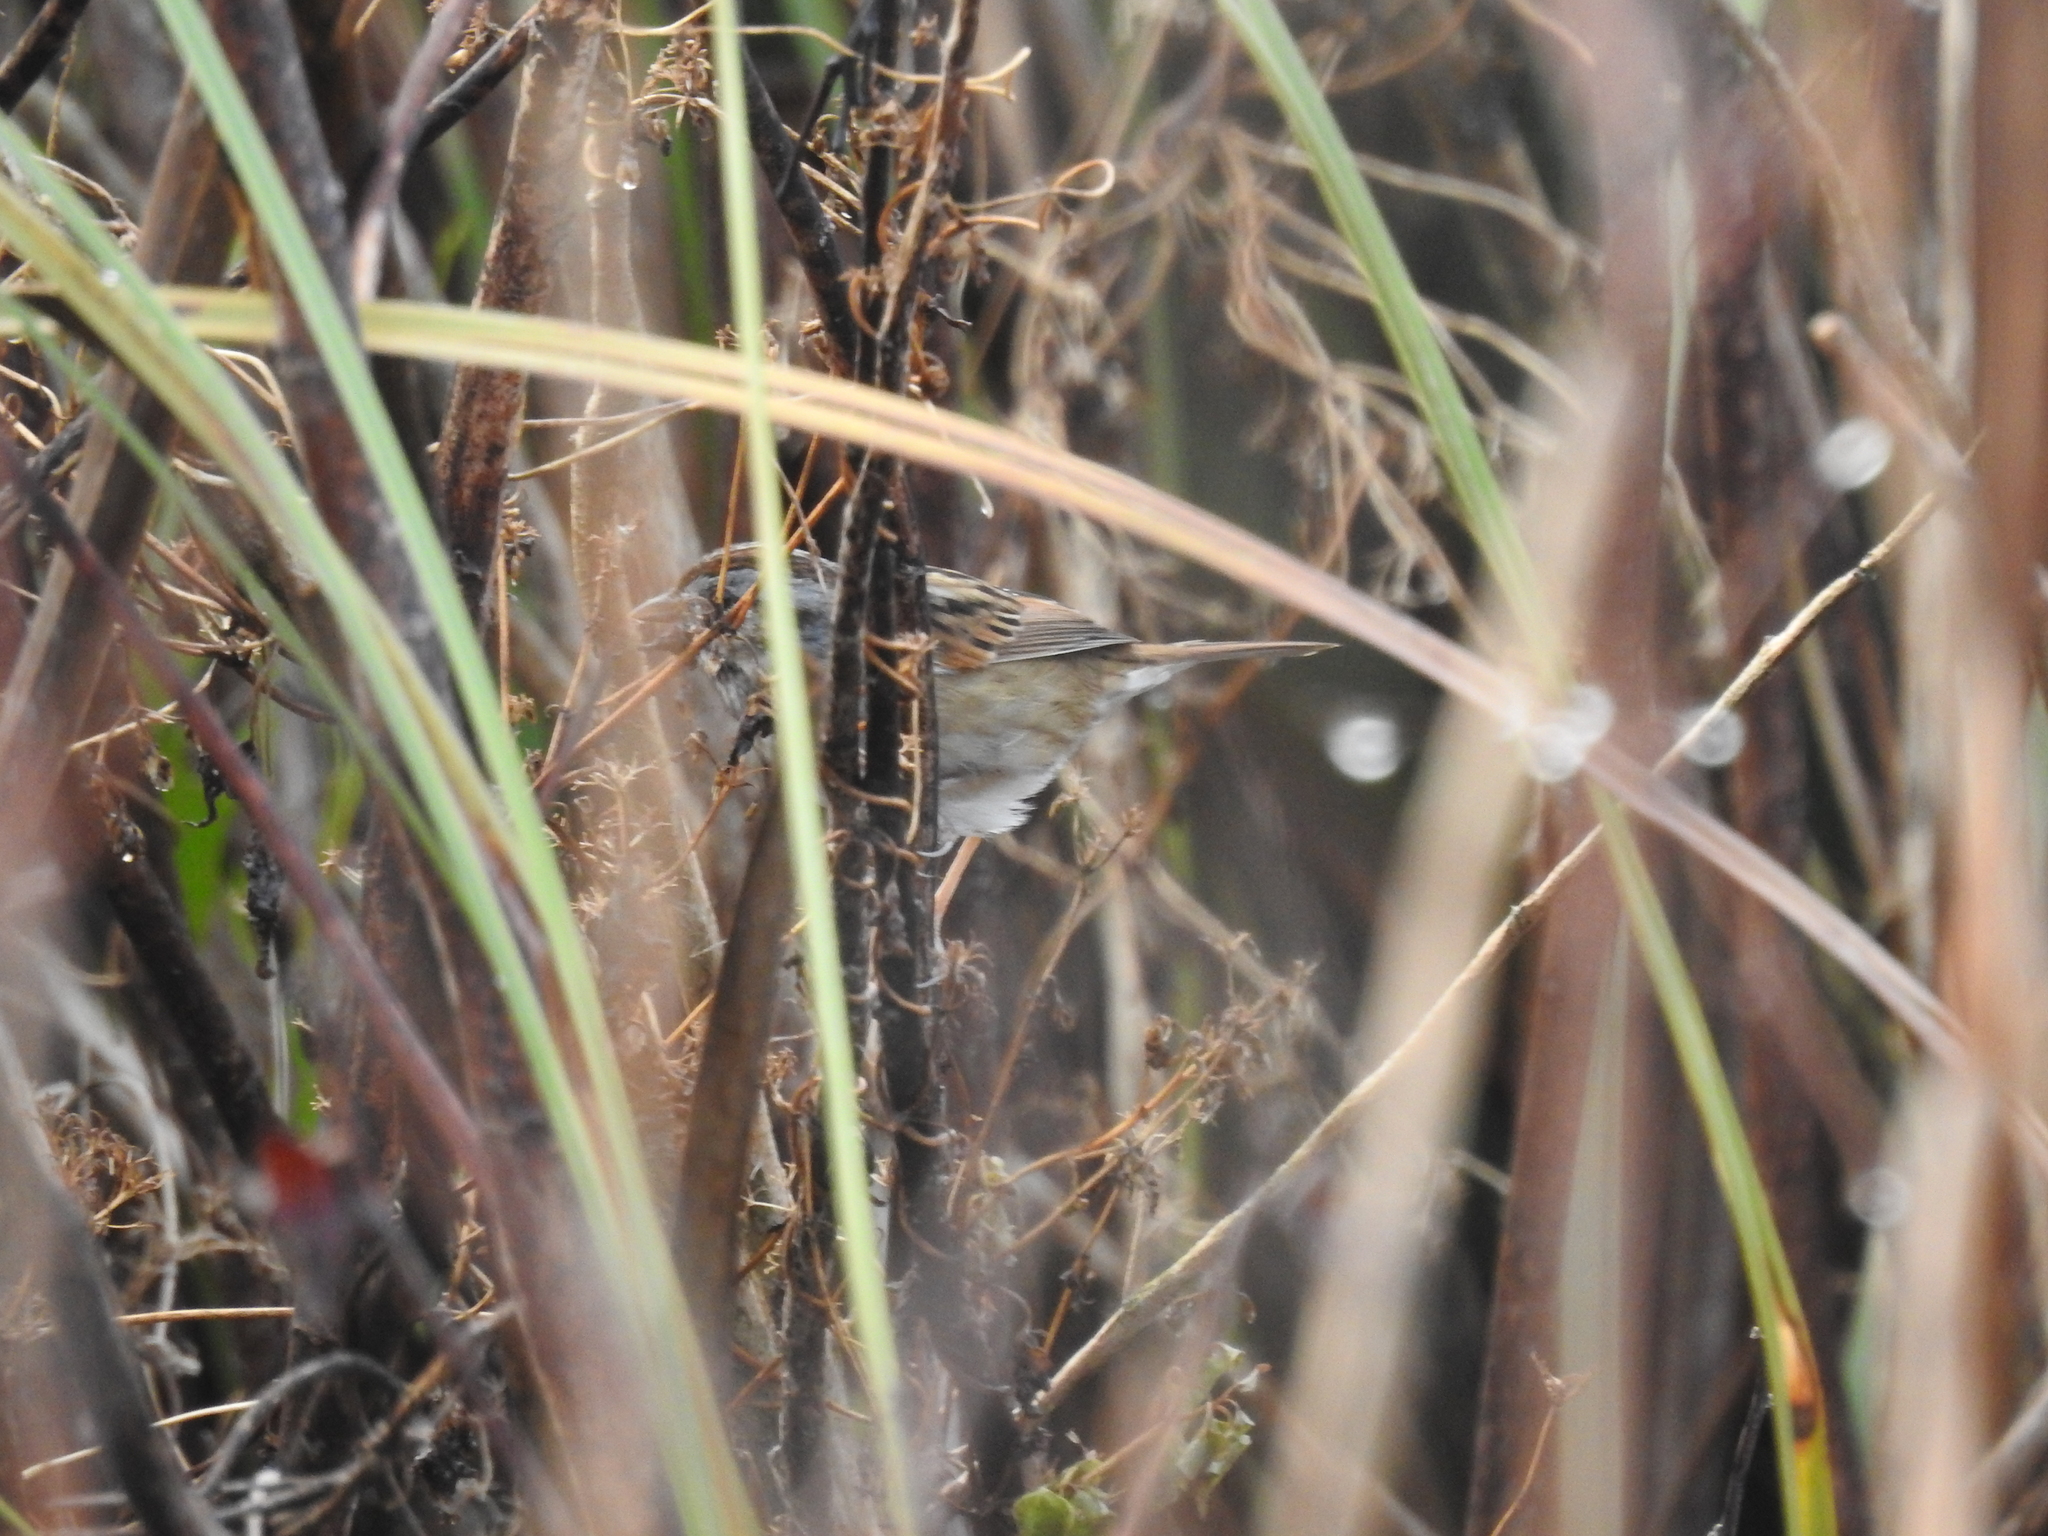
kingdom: Animalia
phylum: Chordata
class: Aves
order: Passeriformes
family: Passerellidae
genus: Melospiza
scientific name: Melospiza georgiana
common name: Swamp sparrow
